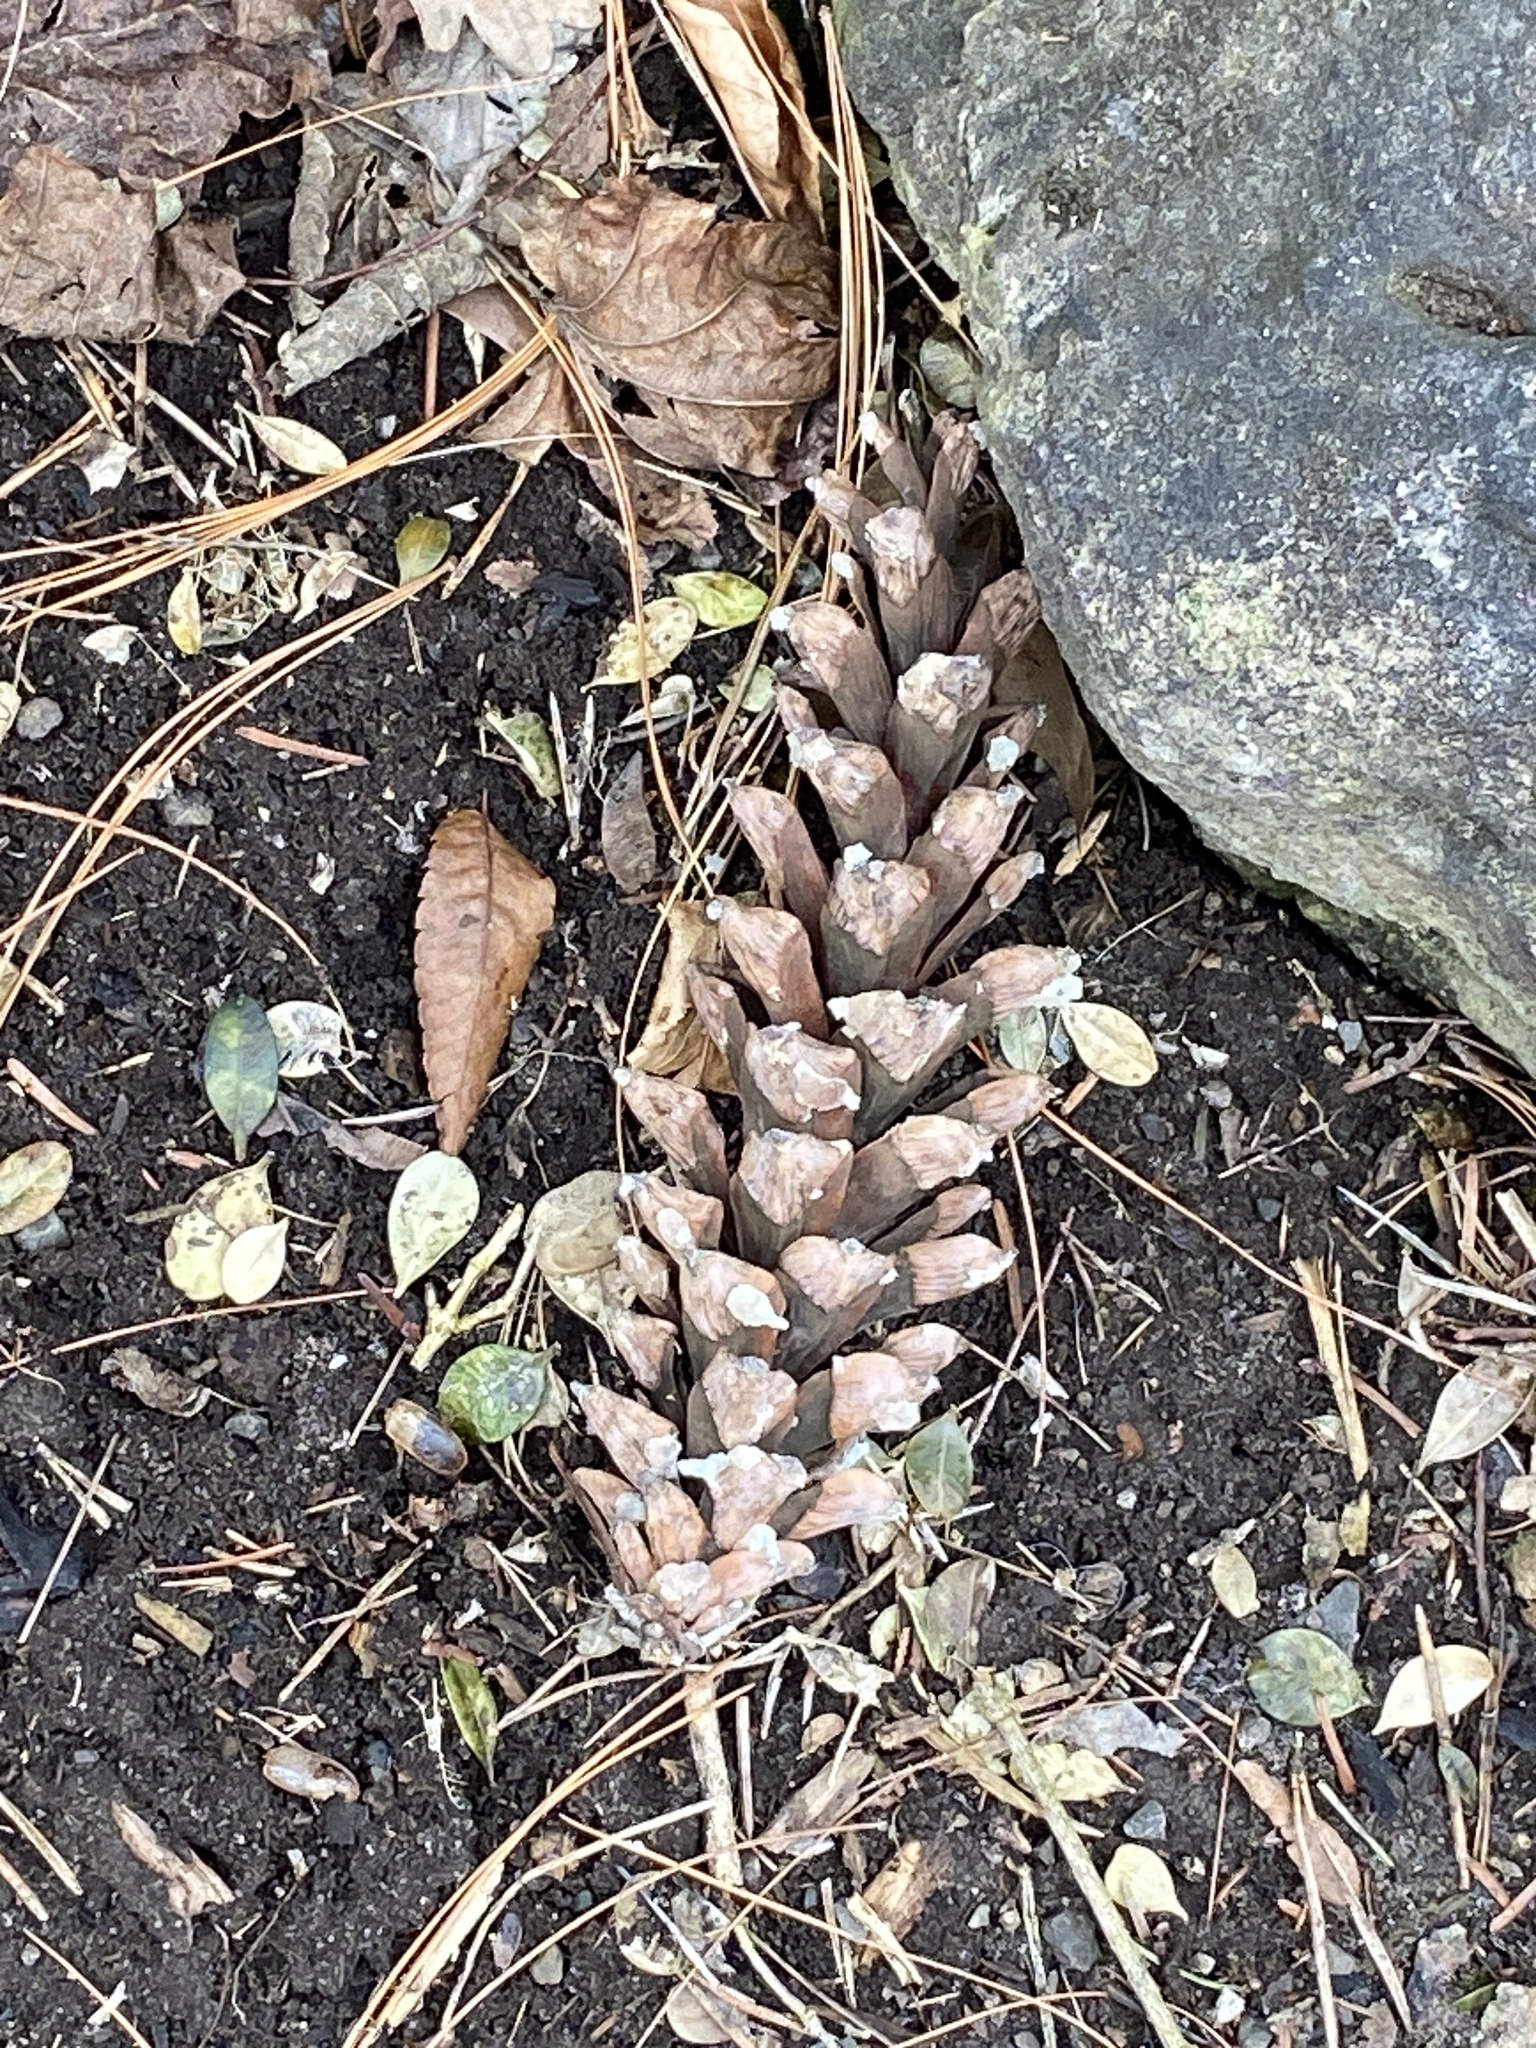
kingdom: Plantae
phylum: Tracheophyta
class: Pinopsida
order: Pinales
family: Pinaceae
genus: Pinus
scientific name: Pinus strobus
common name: Weymouth pine
